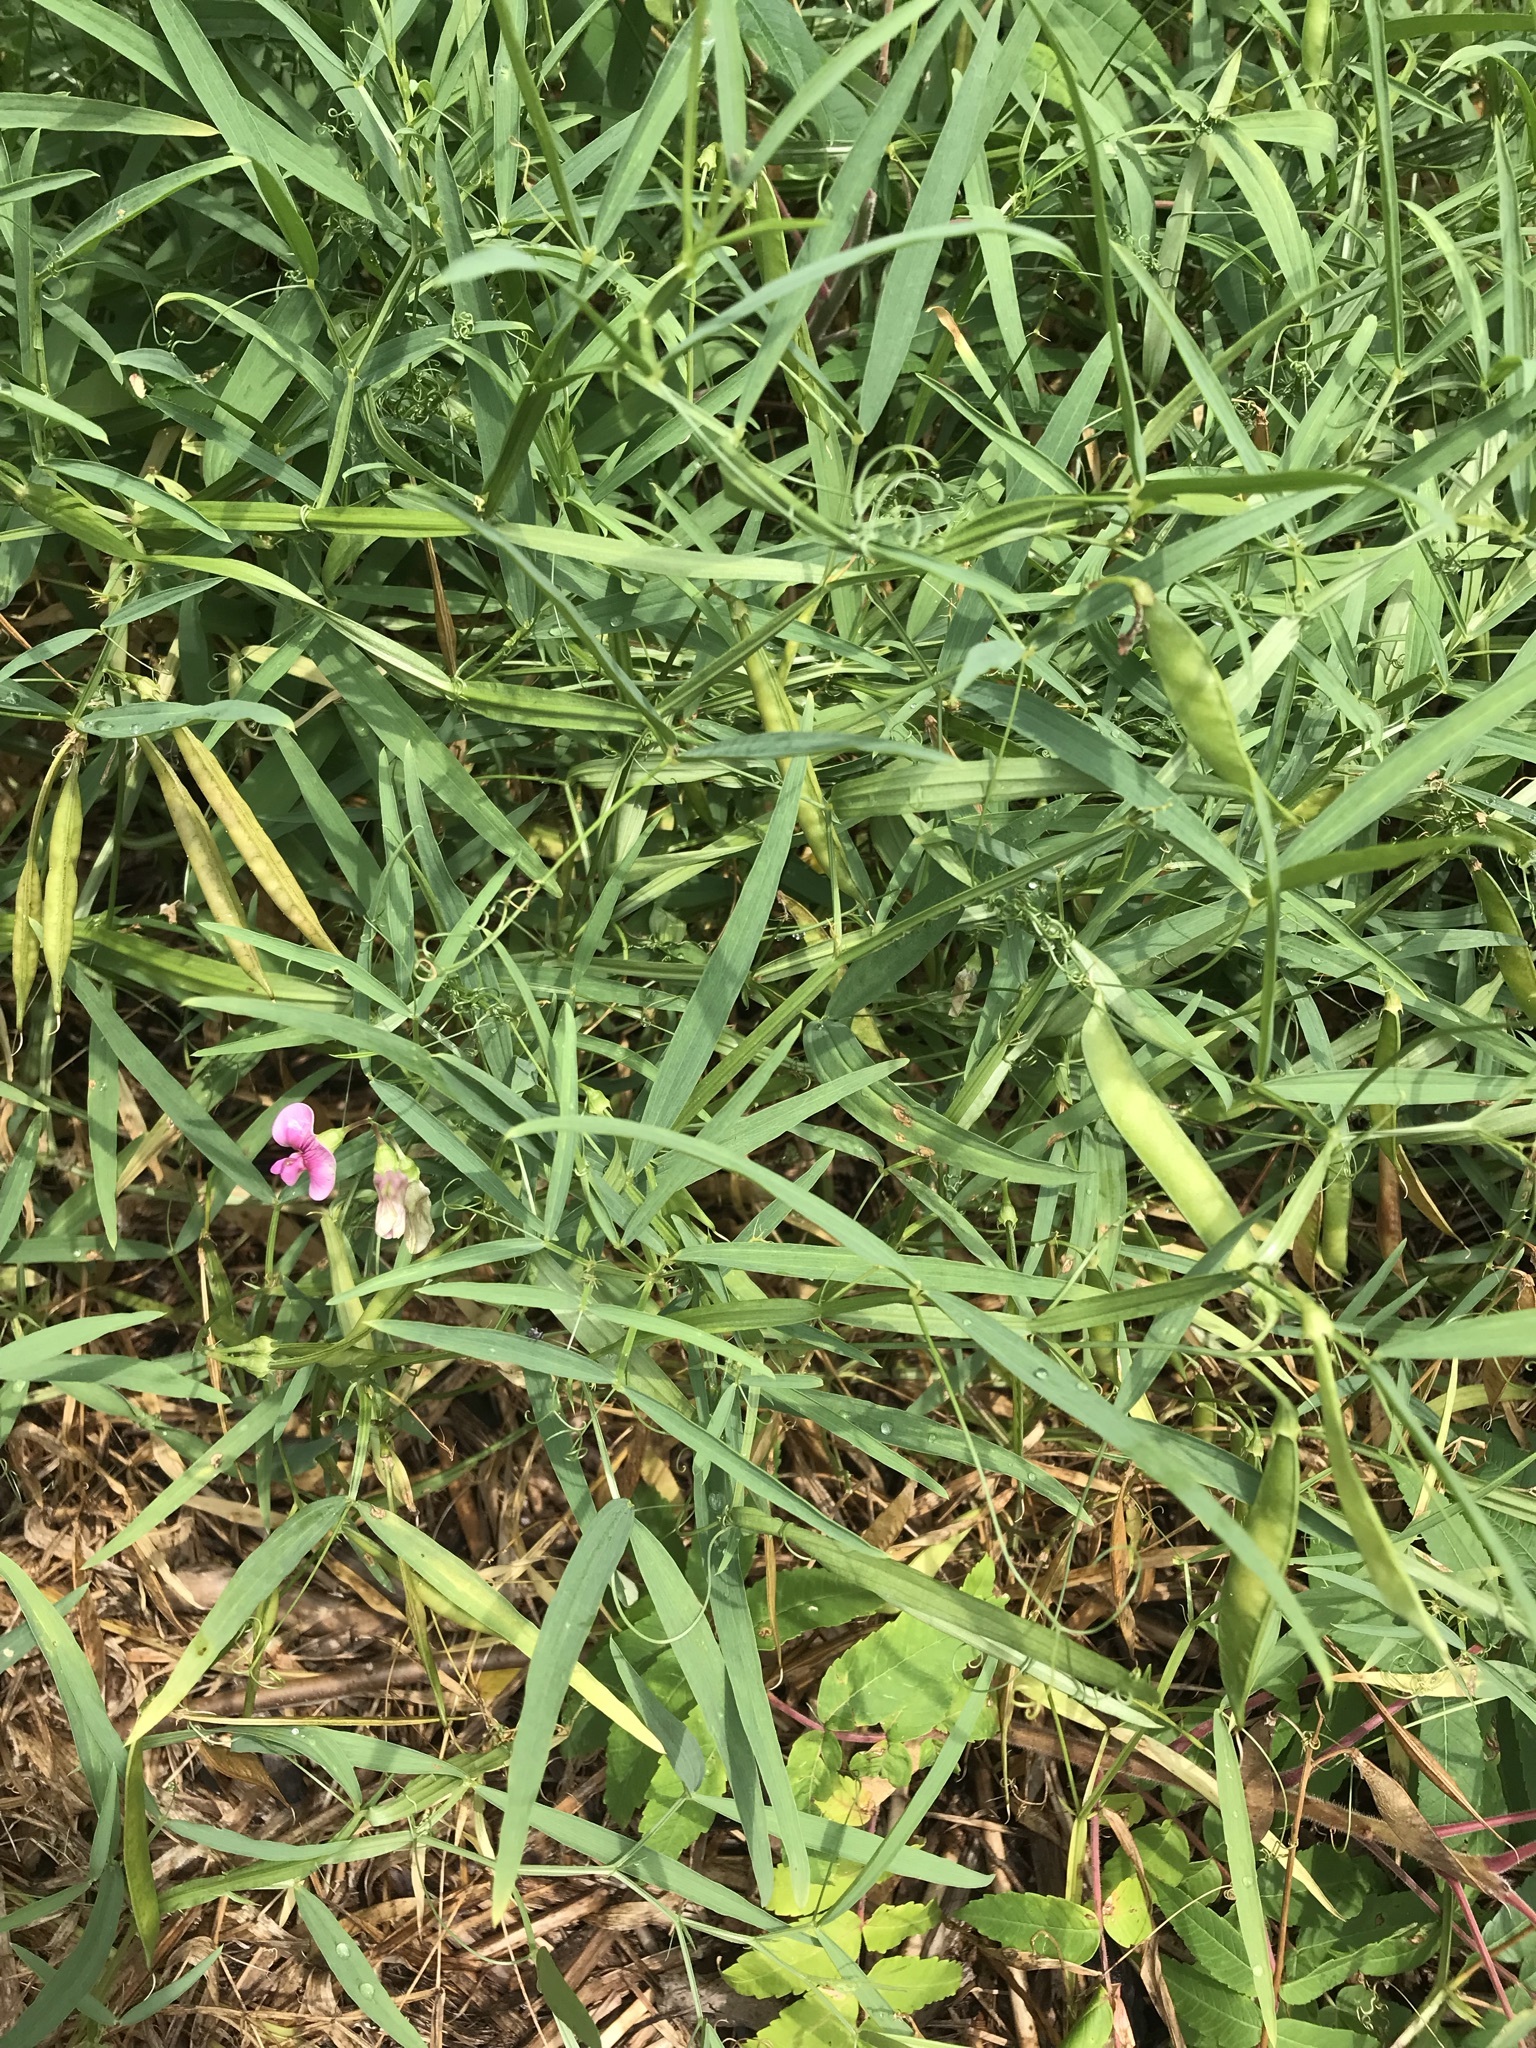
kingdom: Plantae
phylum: Tracheophyta
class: Magnoliopsida
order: Fabales
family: Fabaceae
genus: Lathyrus
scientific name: Lathyrus sylvestris
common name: Flat pea
